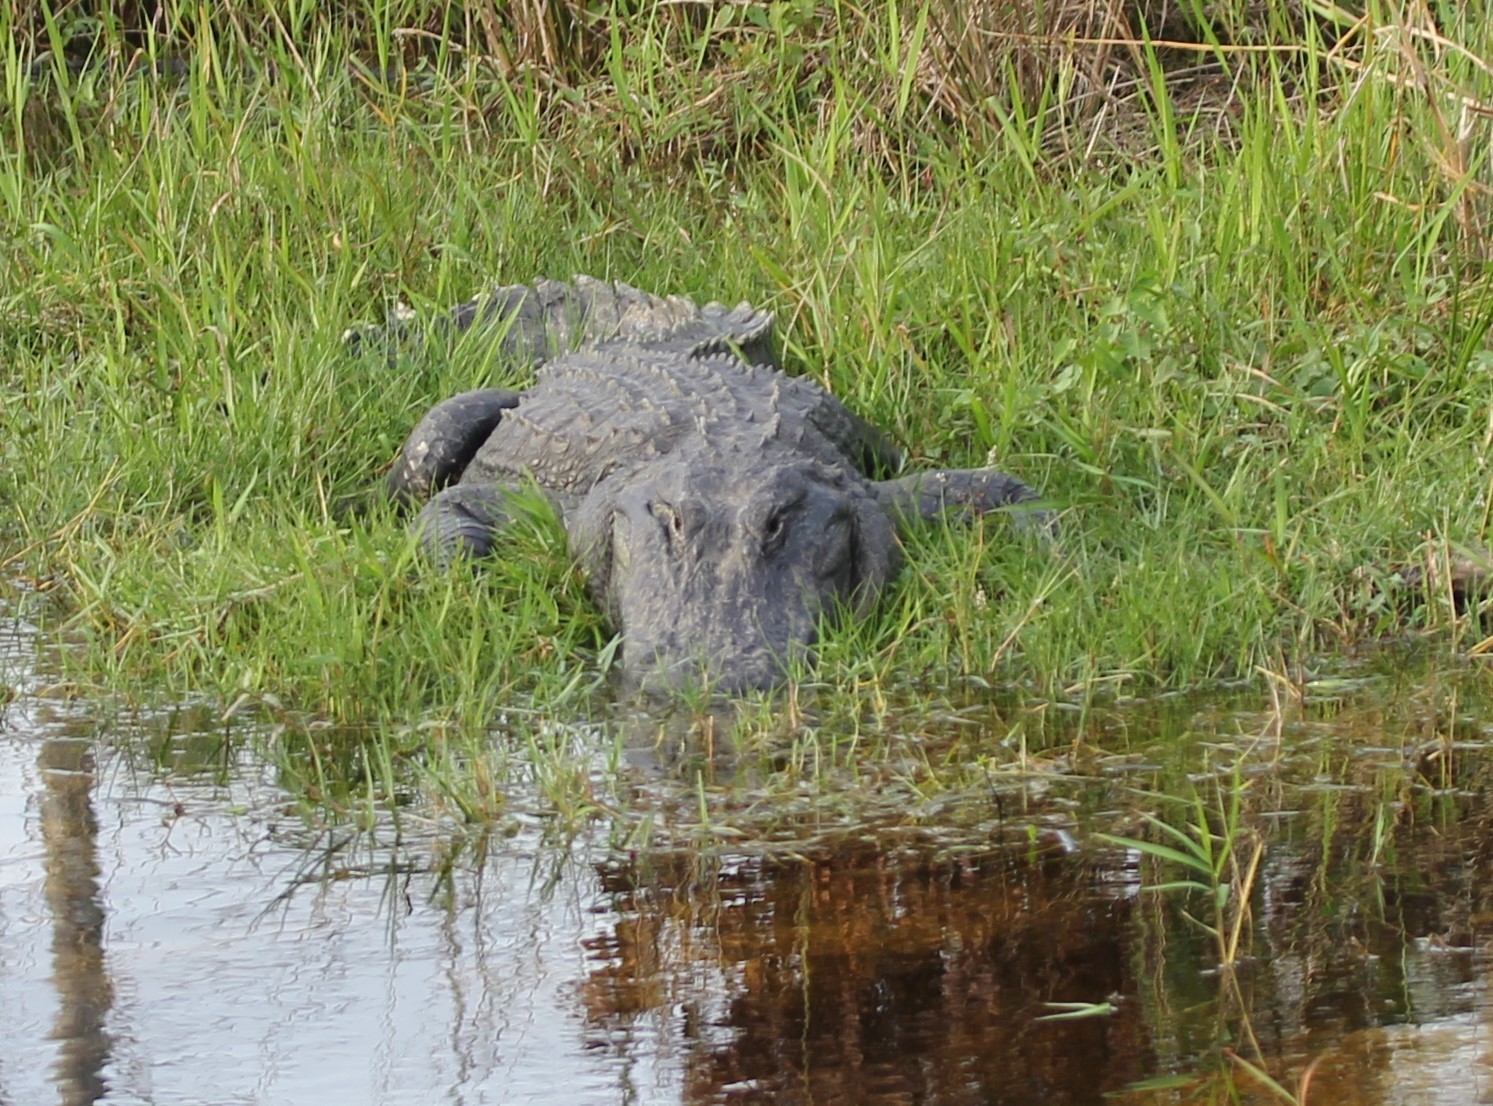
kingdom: Animalia
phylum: Chordata
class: Crocodylia
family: Alligatoridae
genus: Alligator
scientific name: Alligator mississippiensis
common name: American alligator
